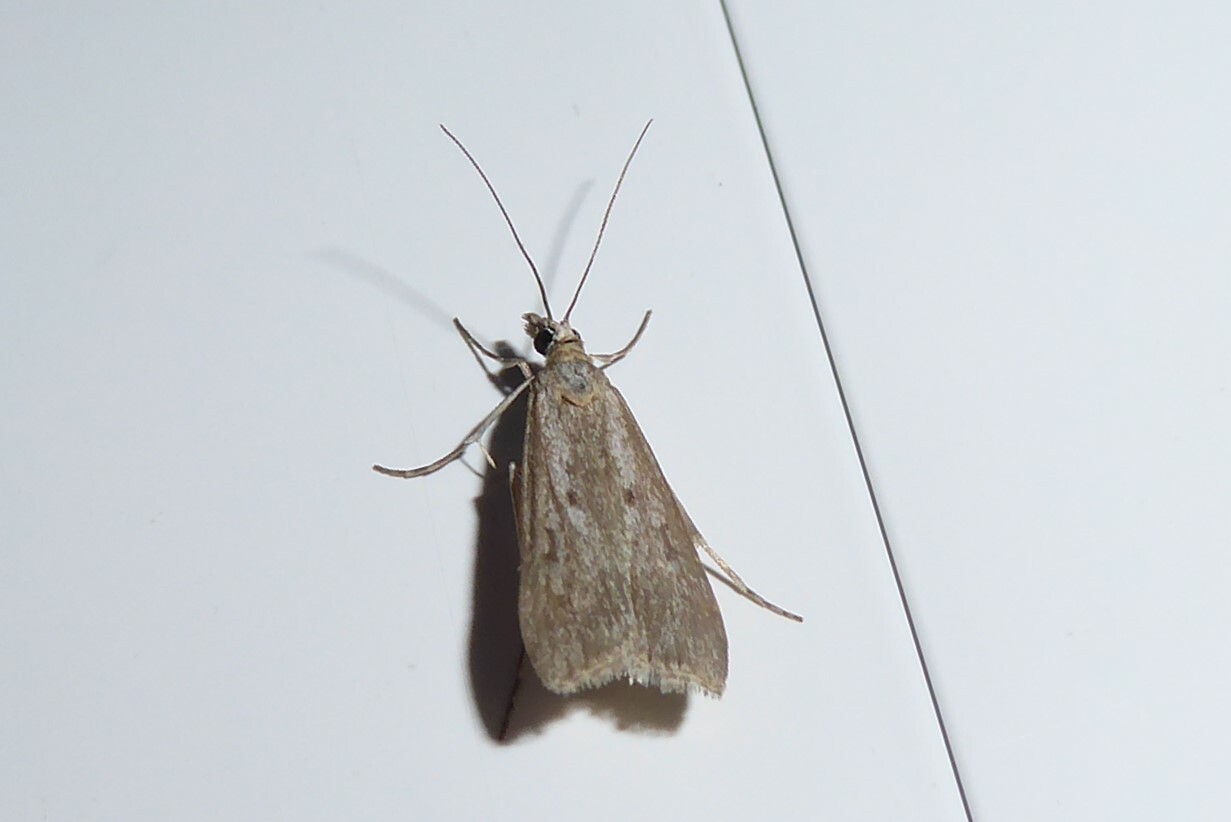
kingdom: Animalia
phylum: Arthropoda
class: Insecta
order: Lepidoptera
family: Crambidae
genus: Eudonia
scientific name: Eudonia leptalea
